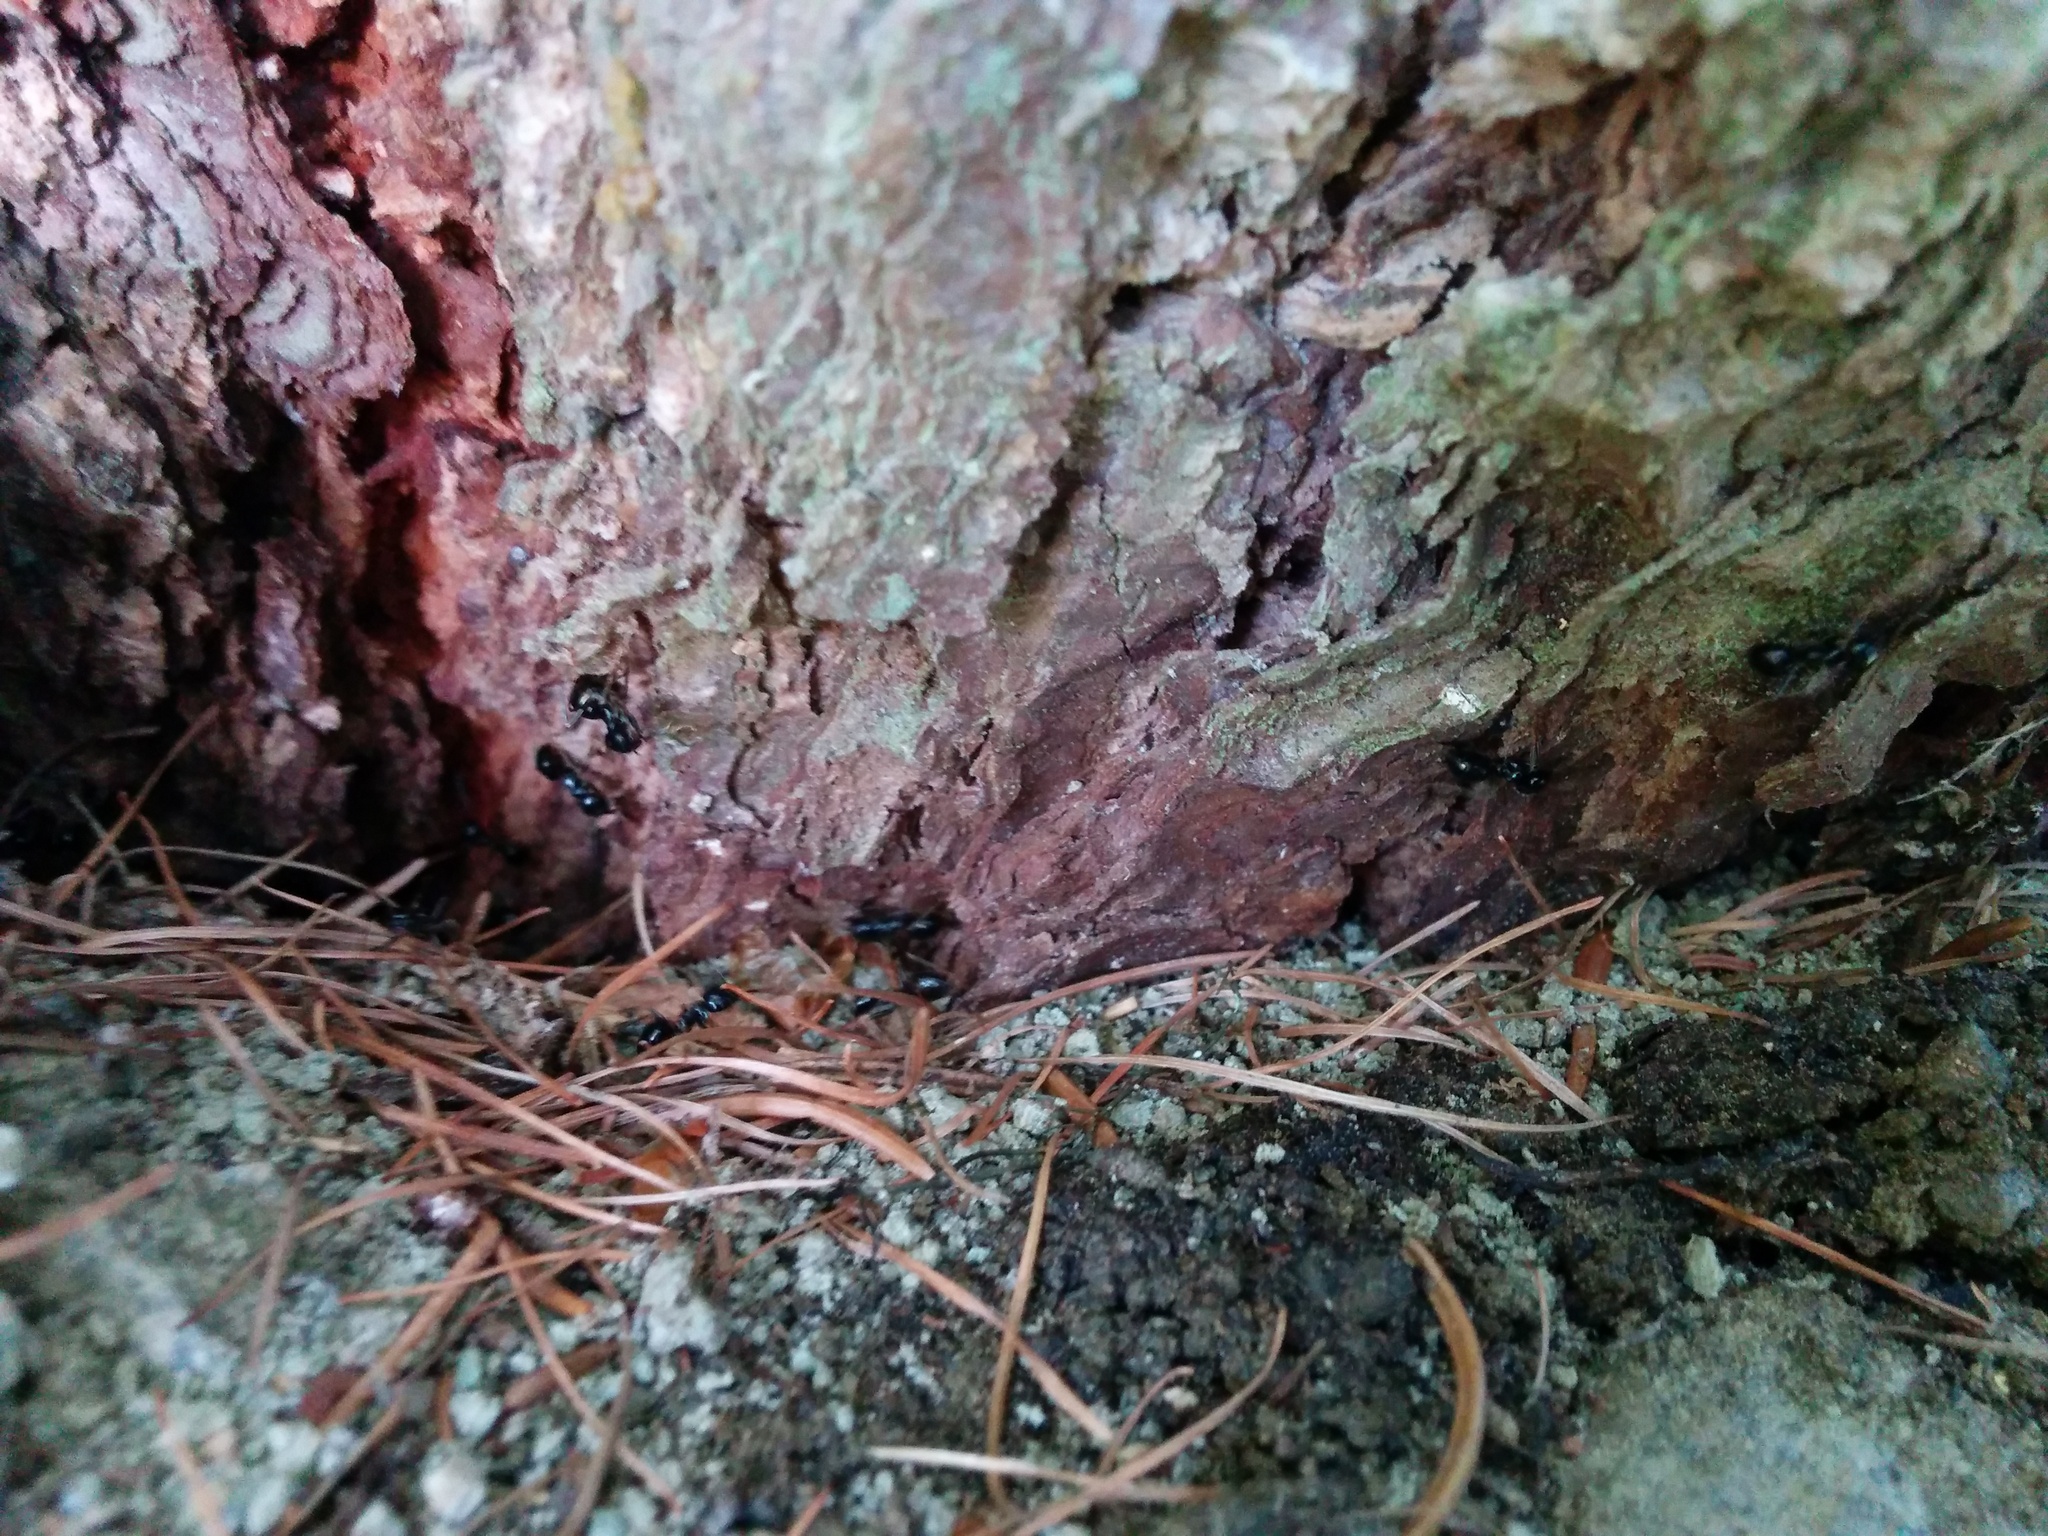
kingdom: Animalia
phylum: Arthropoda
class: Insecta
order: Hymenoptera
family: Formicidae
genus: Lasius
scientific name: Lasius fuliginosus
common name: Jet ant
